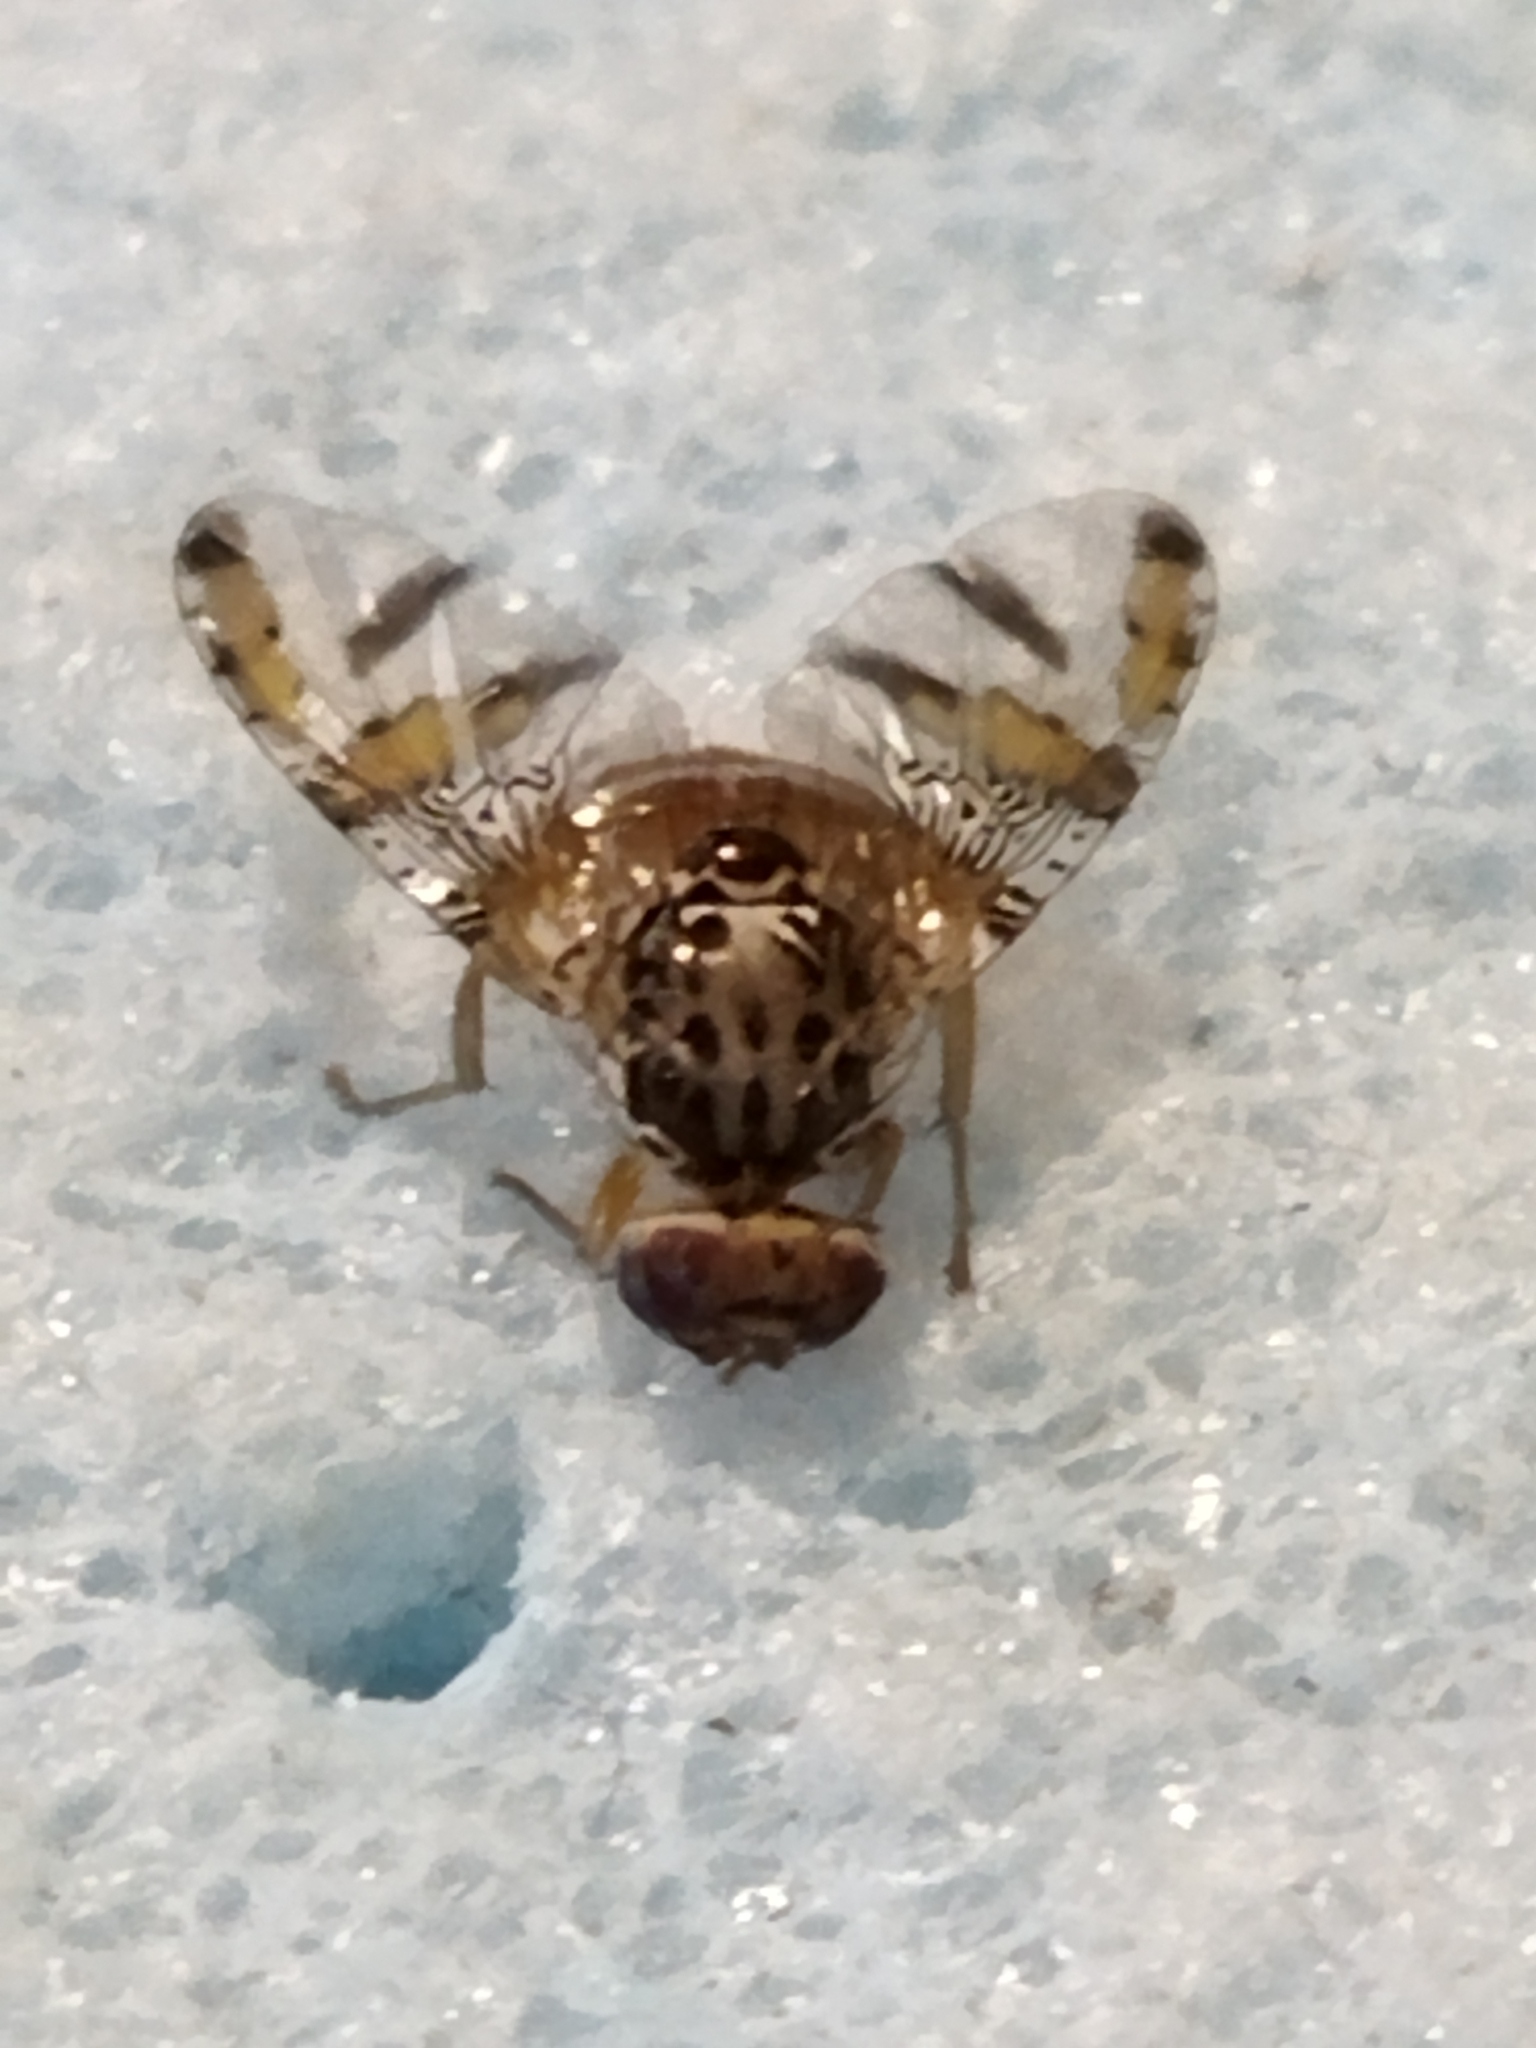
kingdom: Animalia
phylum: Arthropoda
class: Insecta
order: Diptera
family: Tephritidae
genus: Ceratitis
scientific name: Ceratitis capitata
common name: Mediterranean fruit fly
